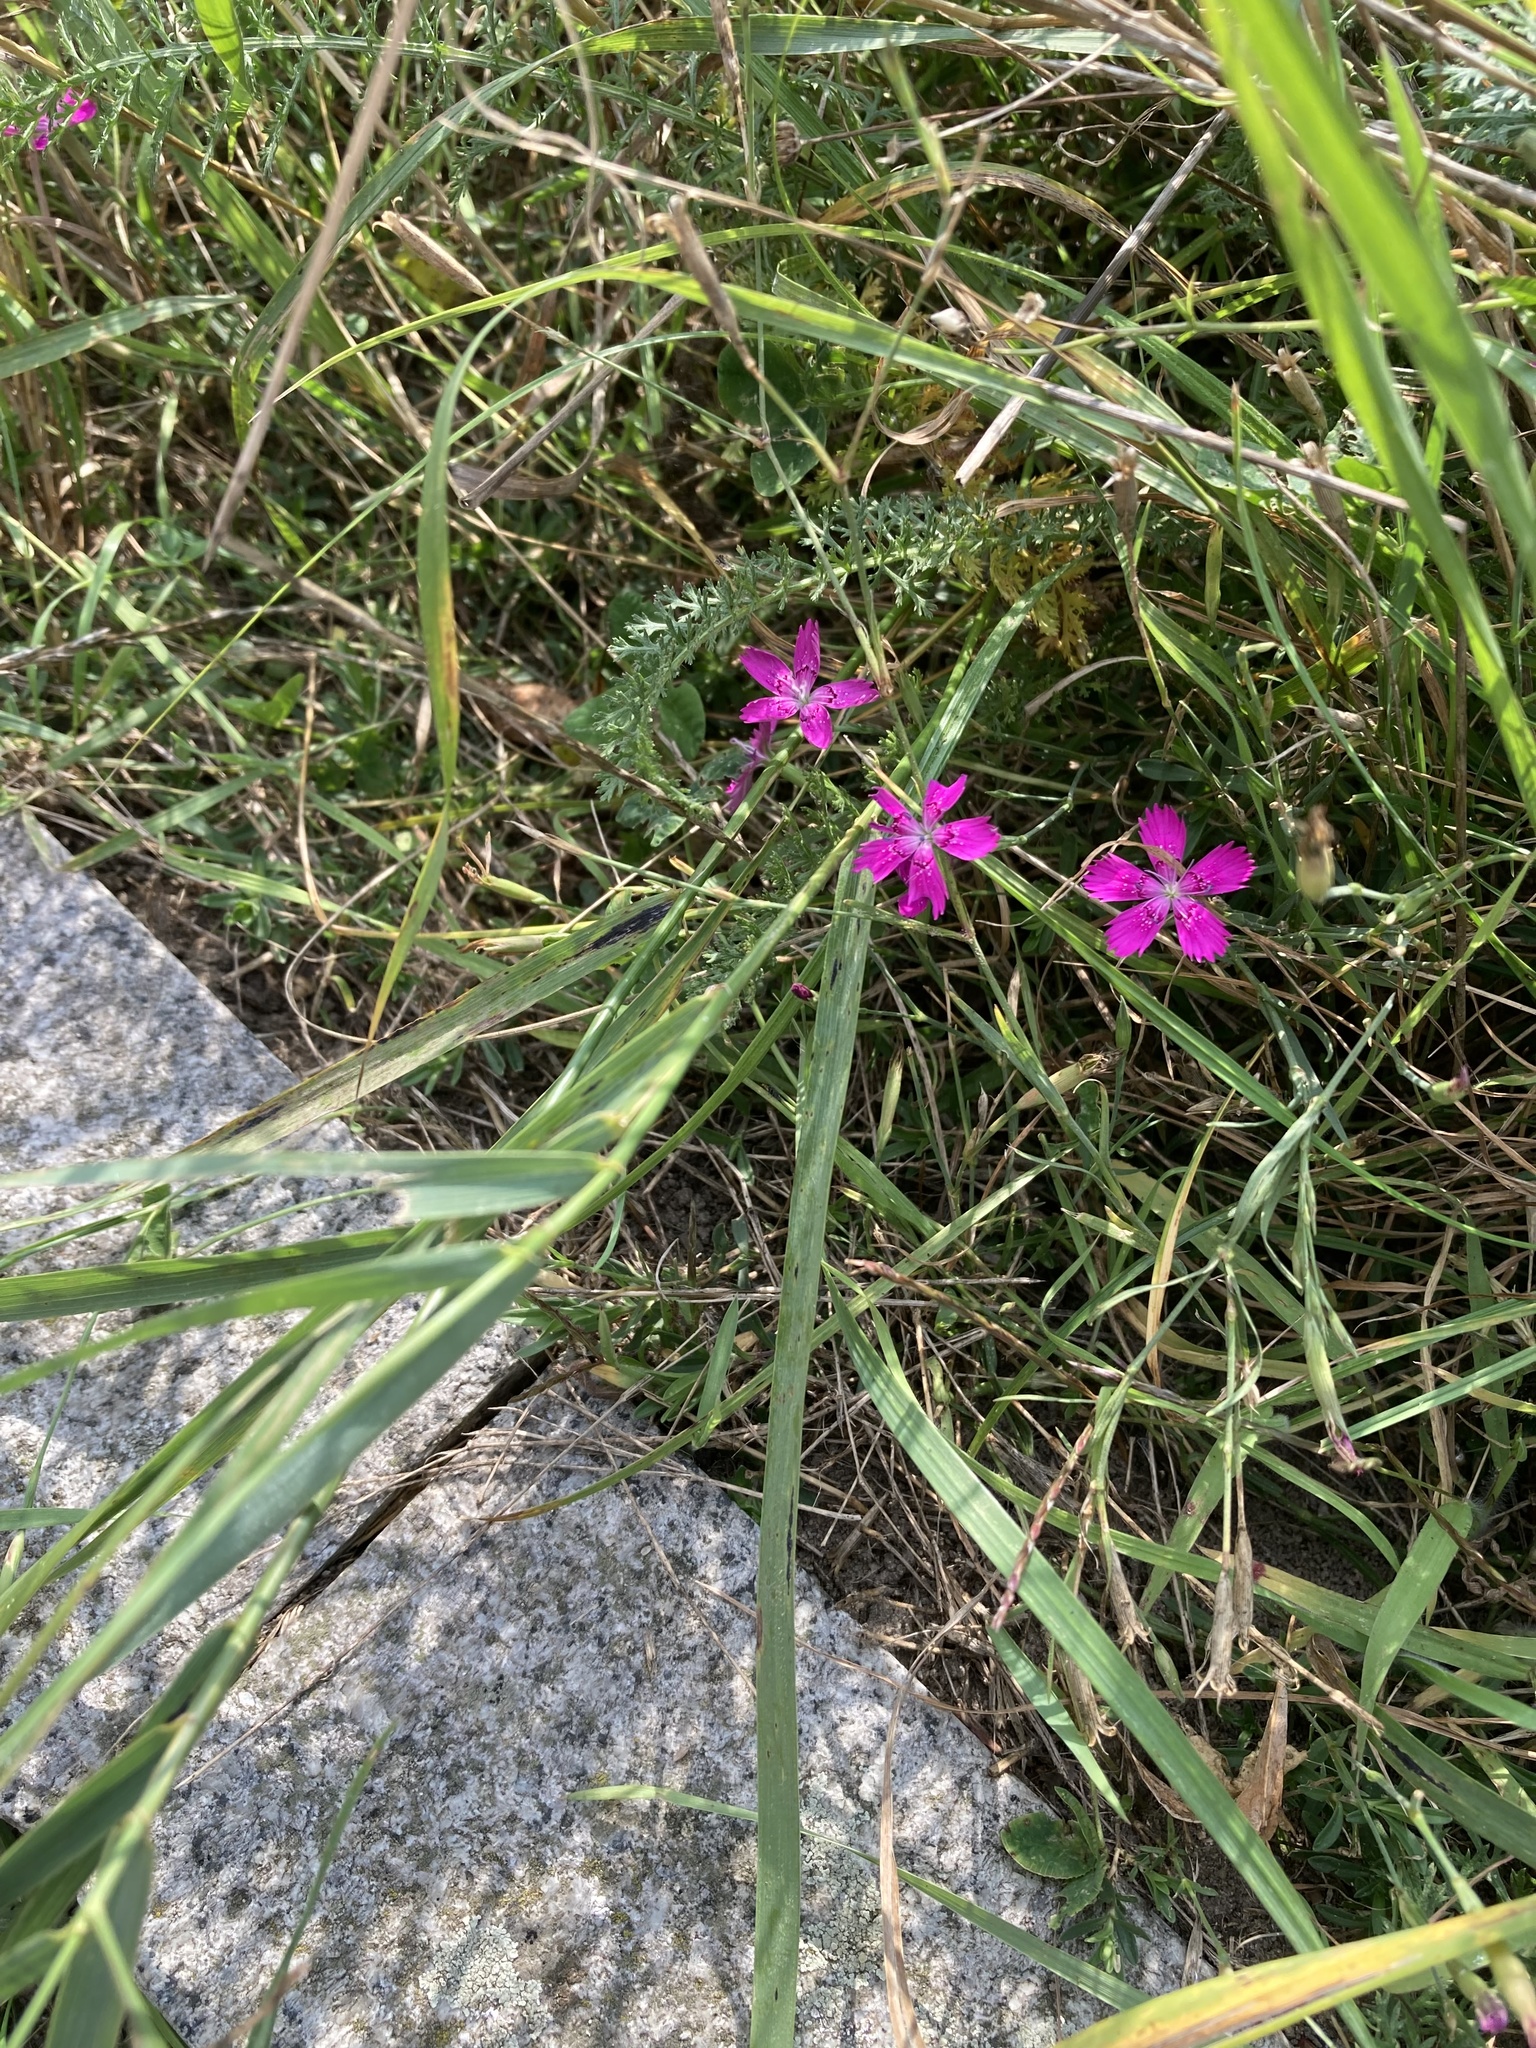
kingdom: Plantae
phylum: Tracheophyta
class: Magnoliopsida
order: Caryophyllales
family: Caryophyllaceae
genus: Dianthus
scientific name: Dianthus deltoides
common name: Maiden pink
